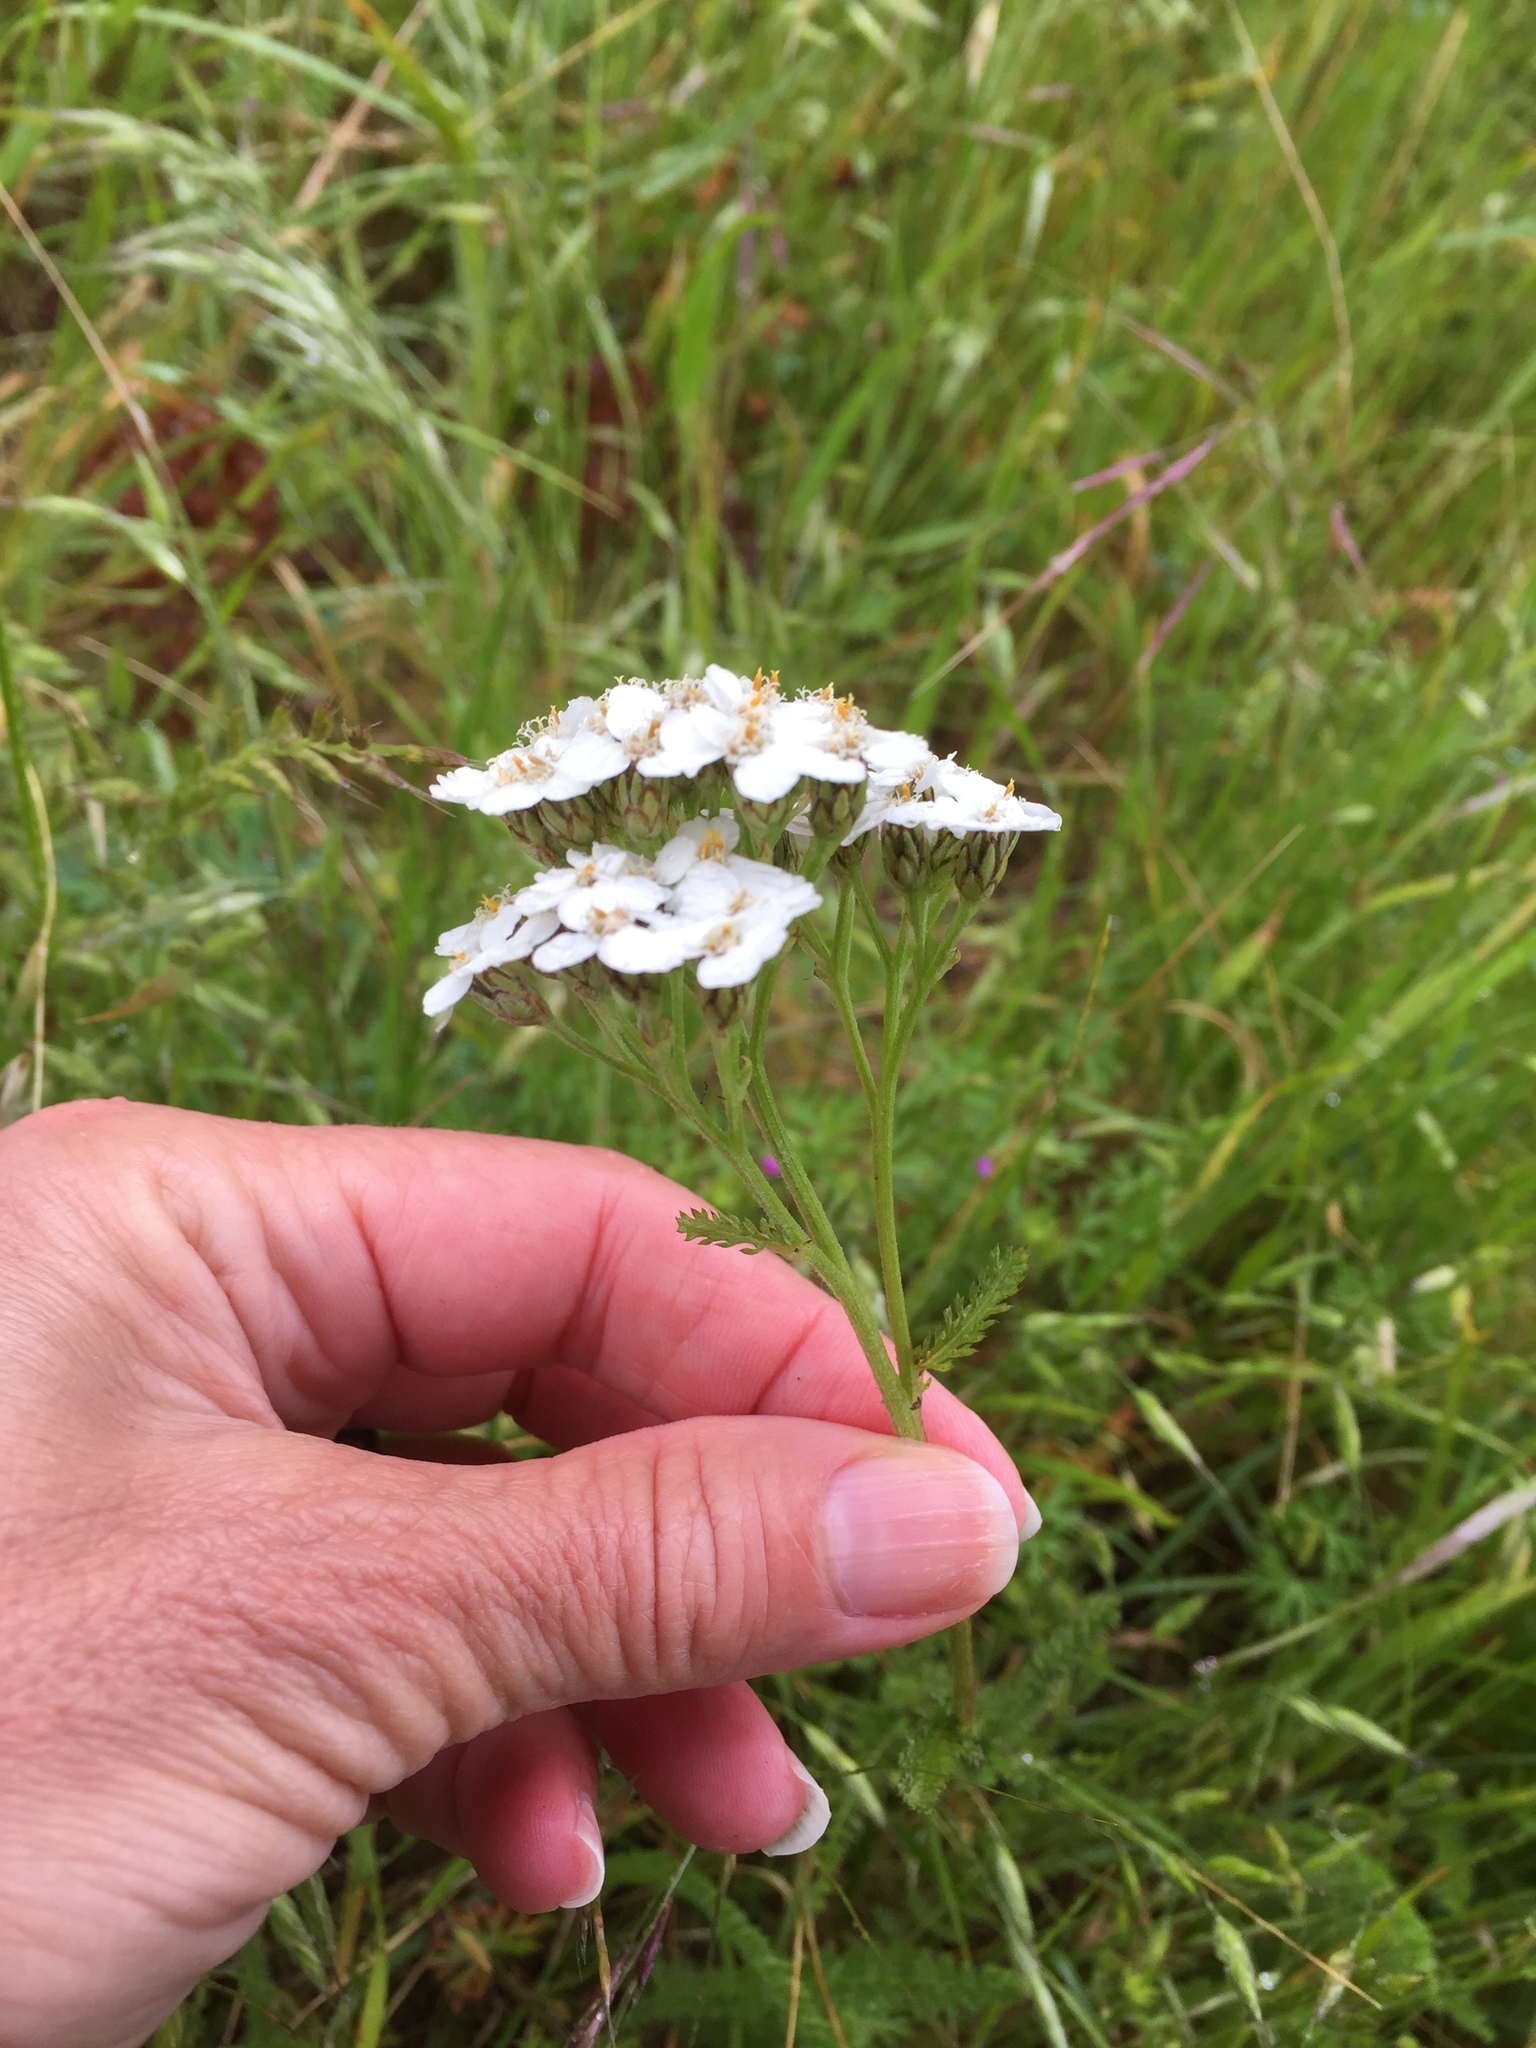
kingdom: Plantae
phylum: Tracheophyta
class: Magnoliopsida
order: Asterales
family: Asteraceae
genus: Achillea
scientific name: Achillea millefolium
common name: Yarrow
